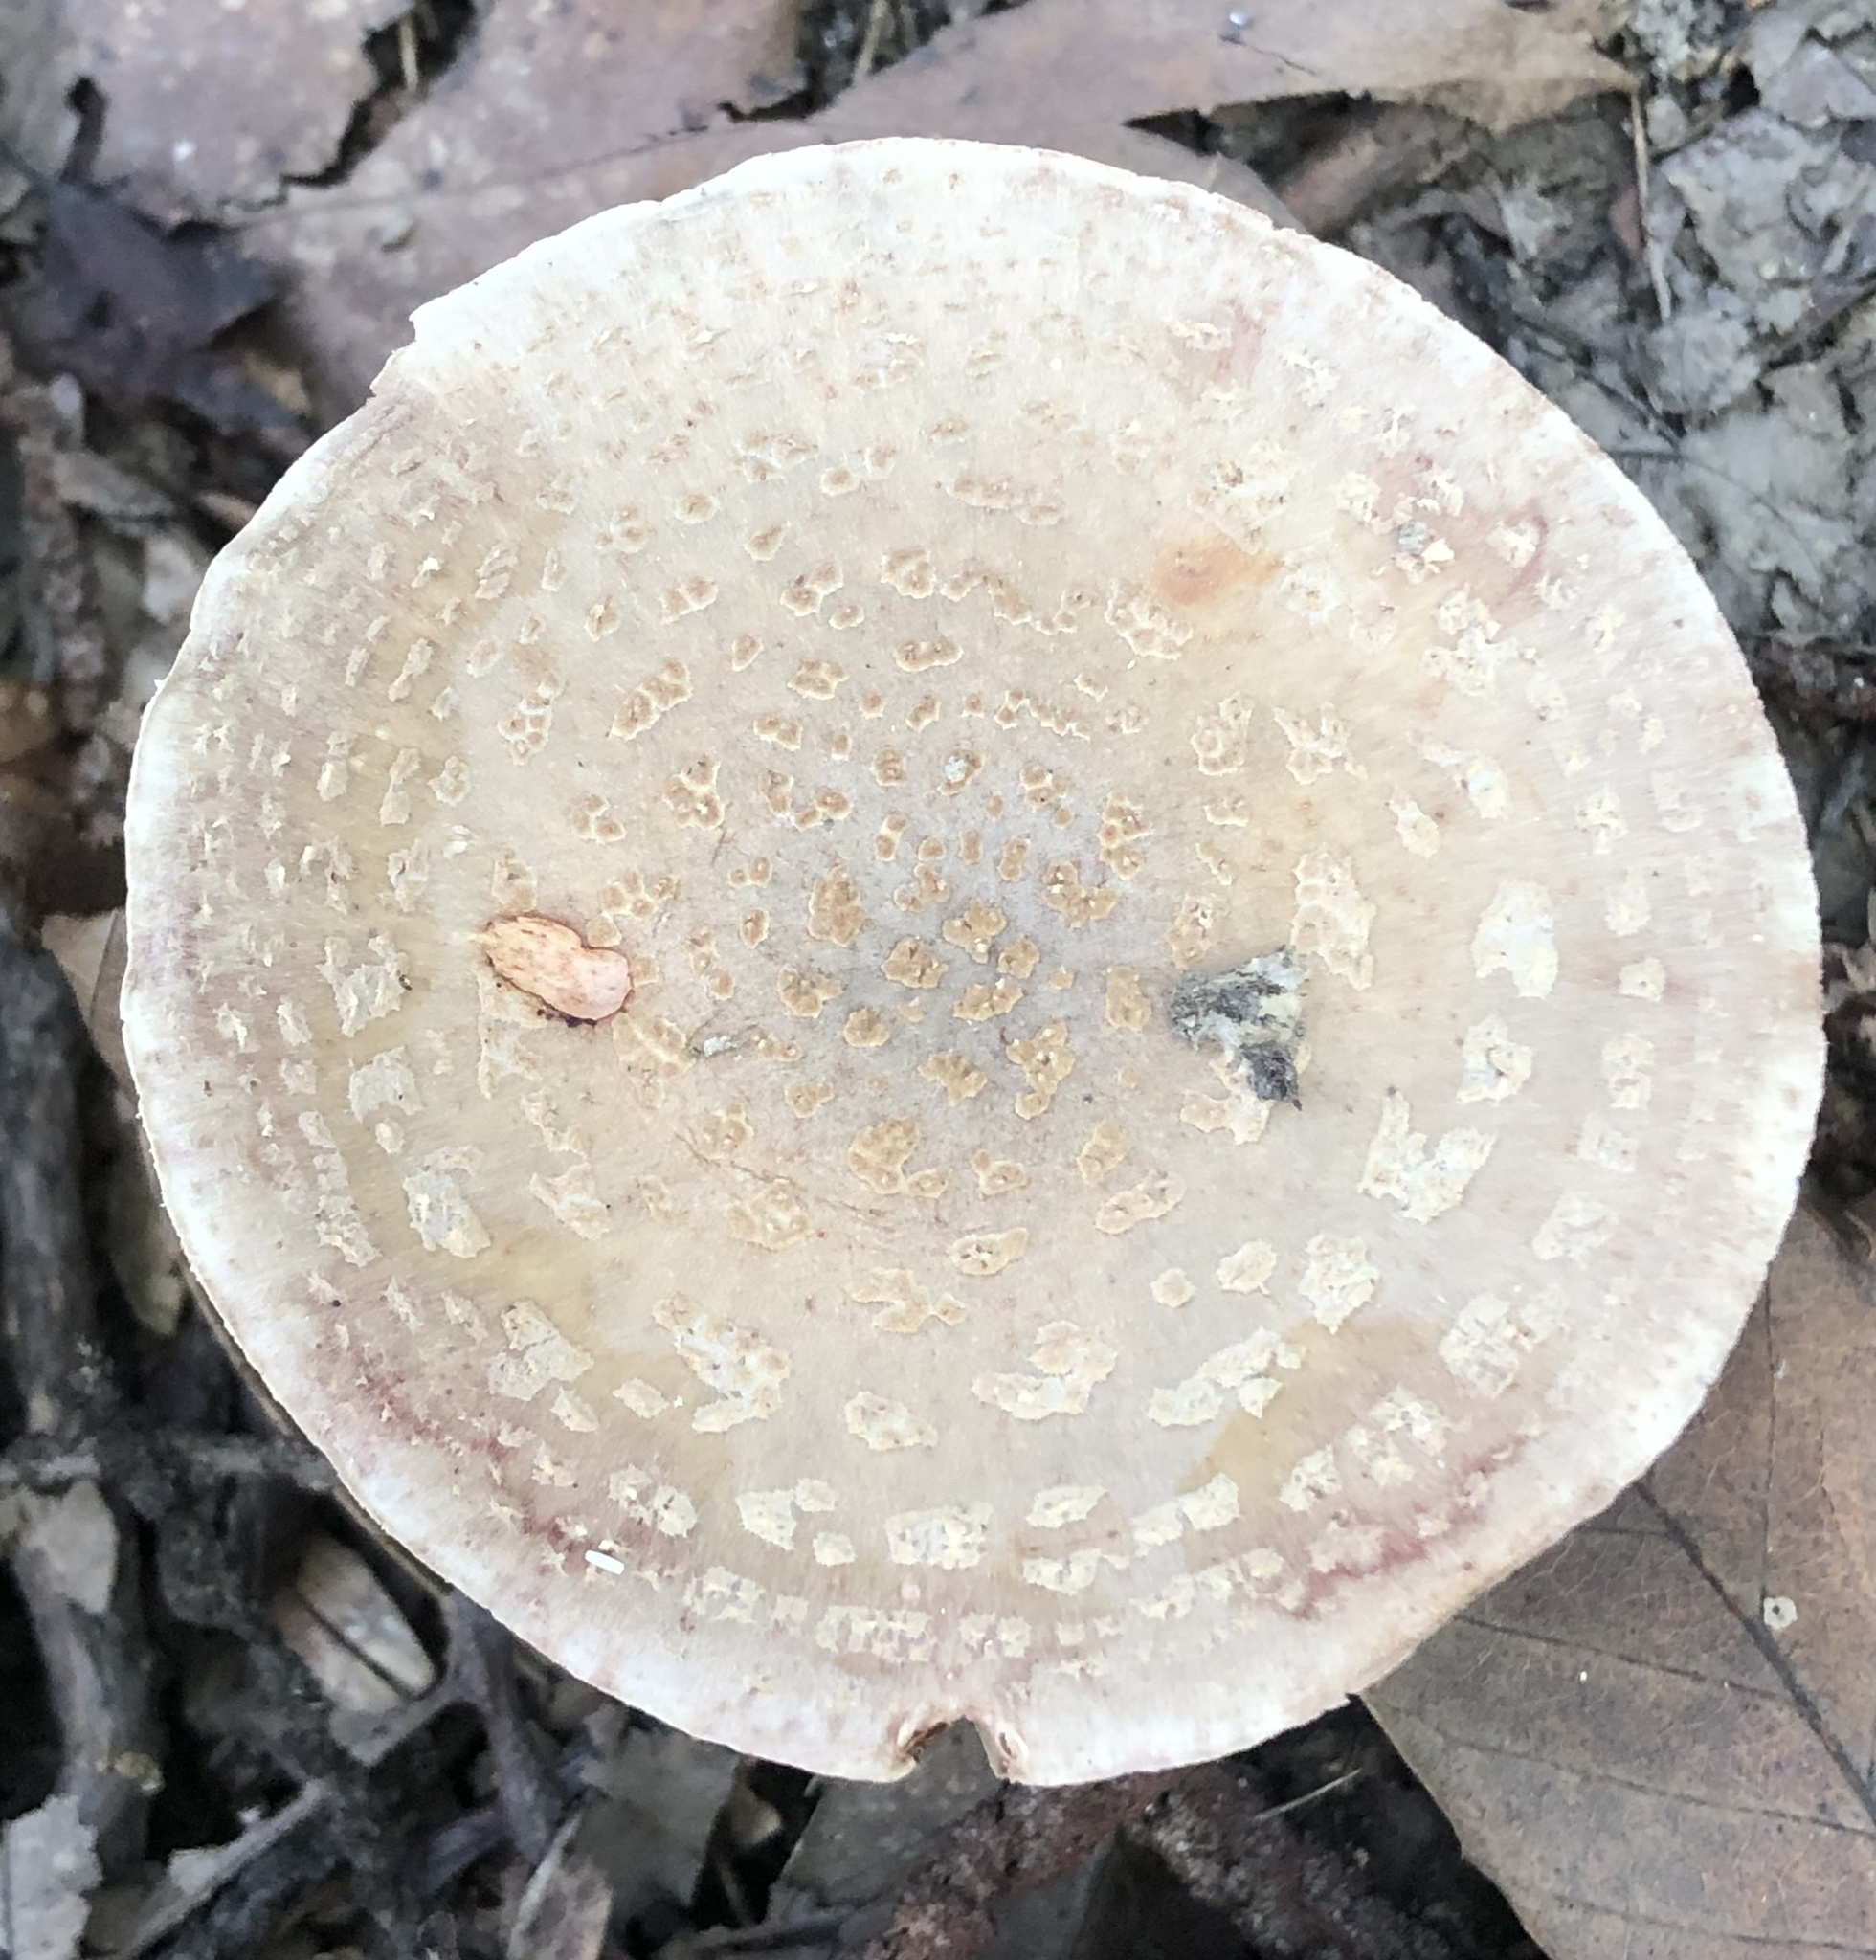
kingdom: Fungi
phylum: Basidiomycota
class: Agaricomycetes
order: Agaricales
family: Amanitaceae
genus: Amanita
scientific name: Amanita rubescens
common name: Blusher
